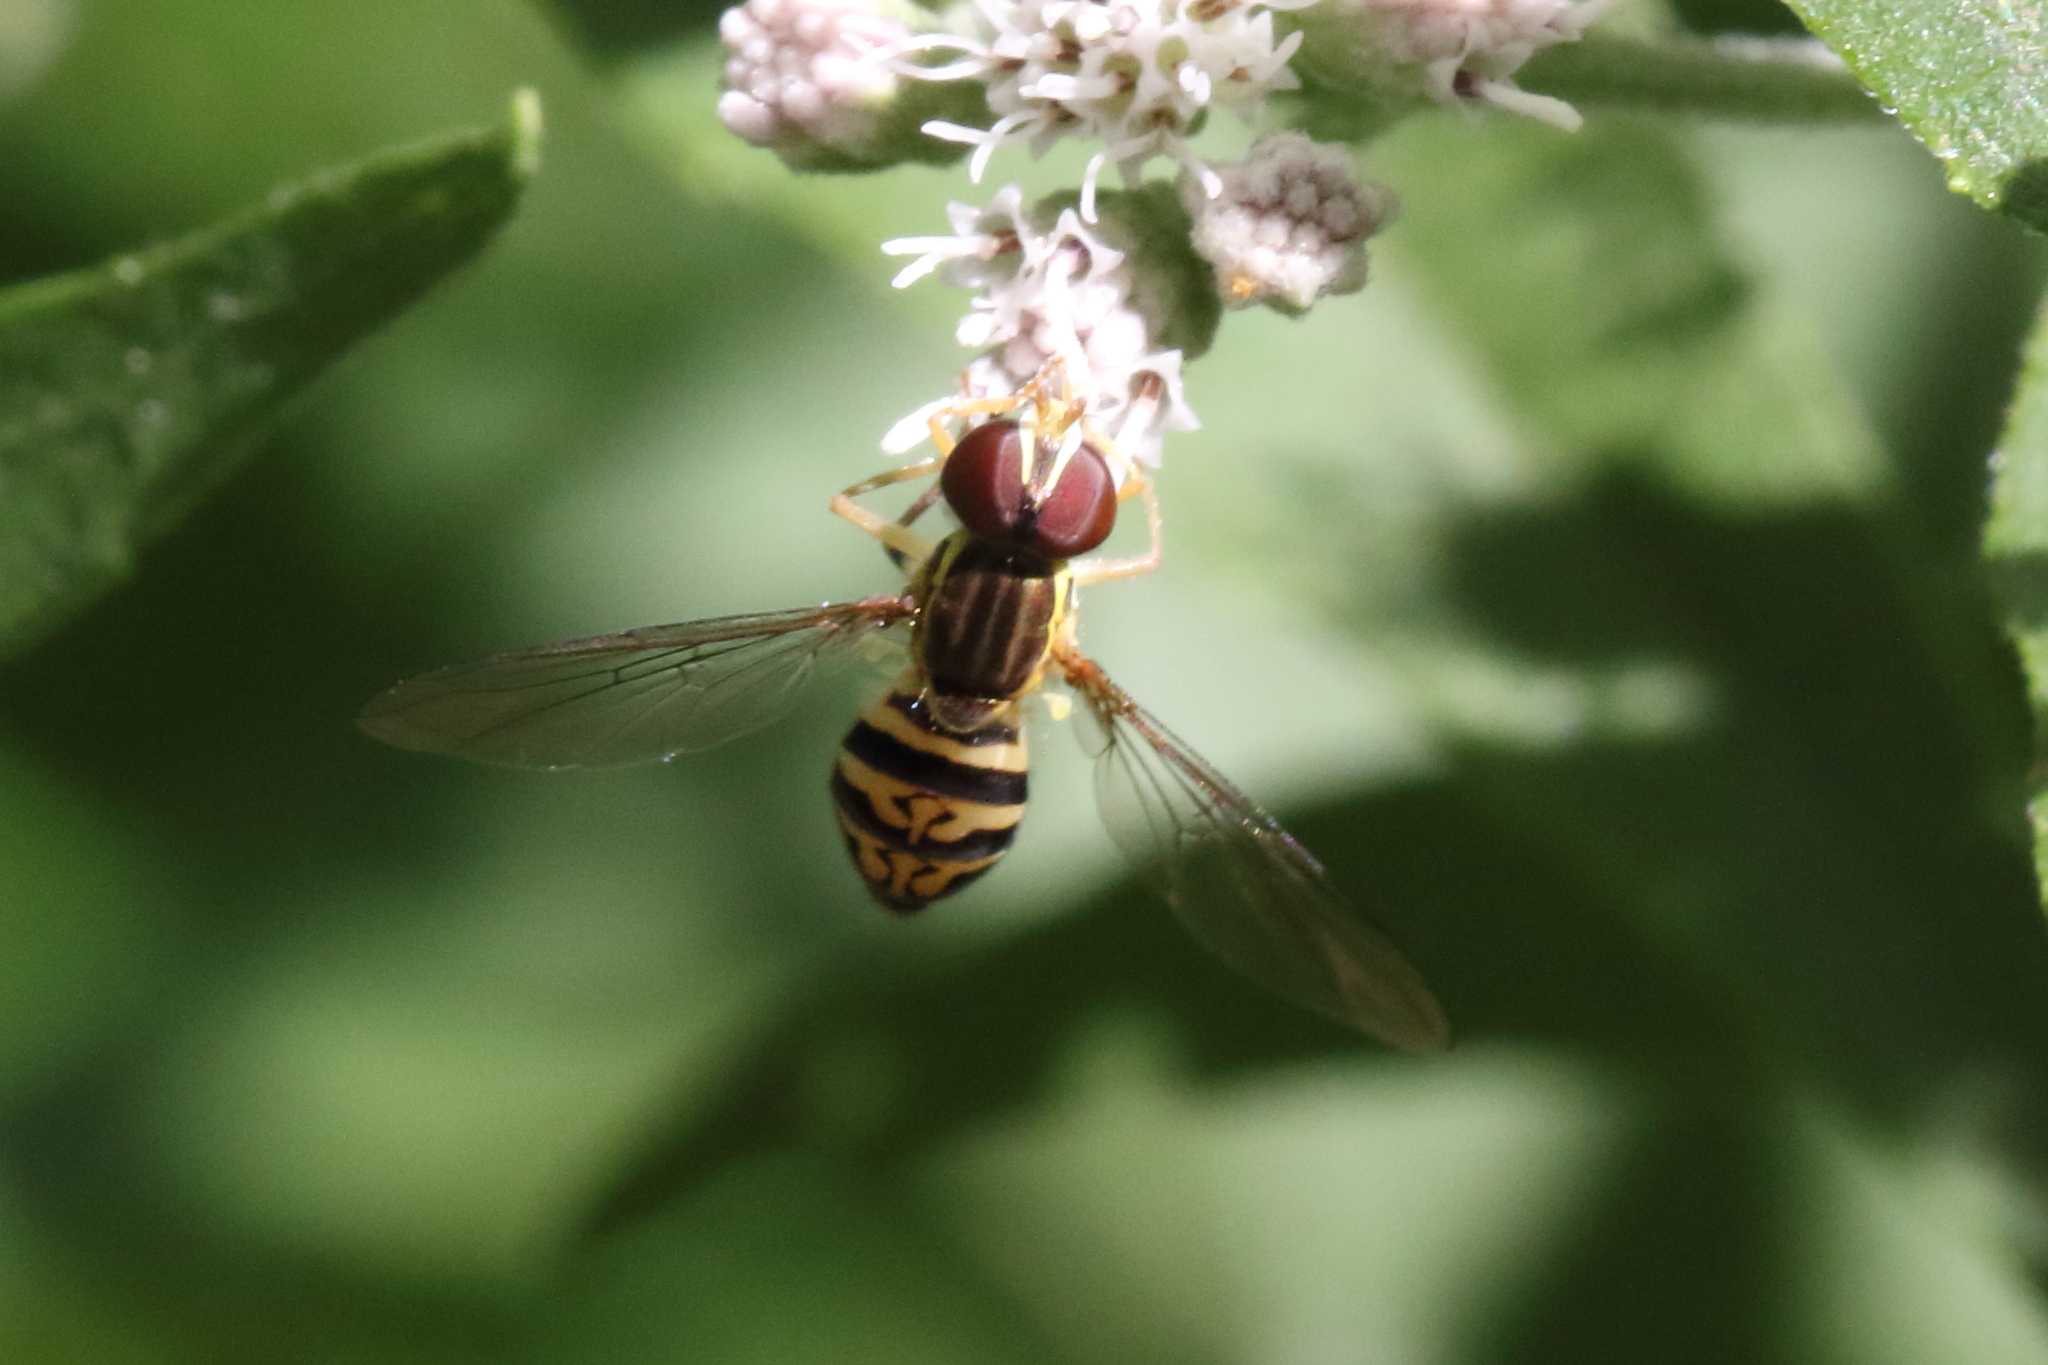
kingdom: Animalia
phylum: Arthropoda
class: Insecta
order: Diptera
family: Syrphidae
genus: Toxomerus
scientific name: Toxomerus geminatus
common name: Eastern calligrapher
